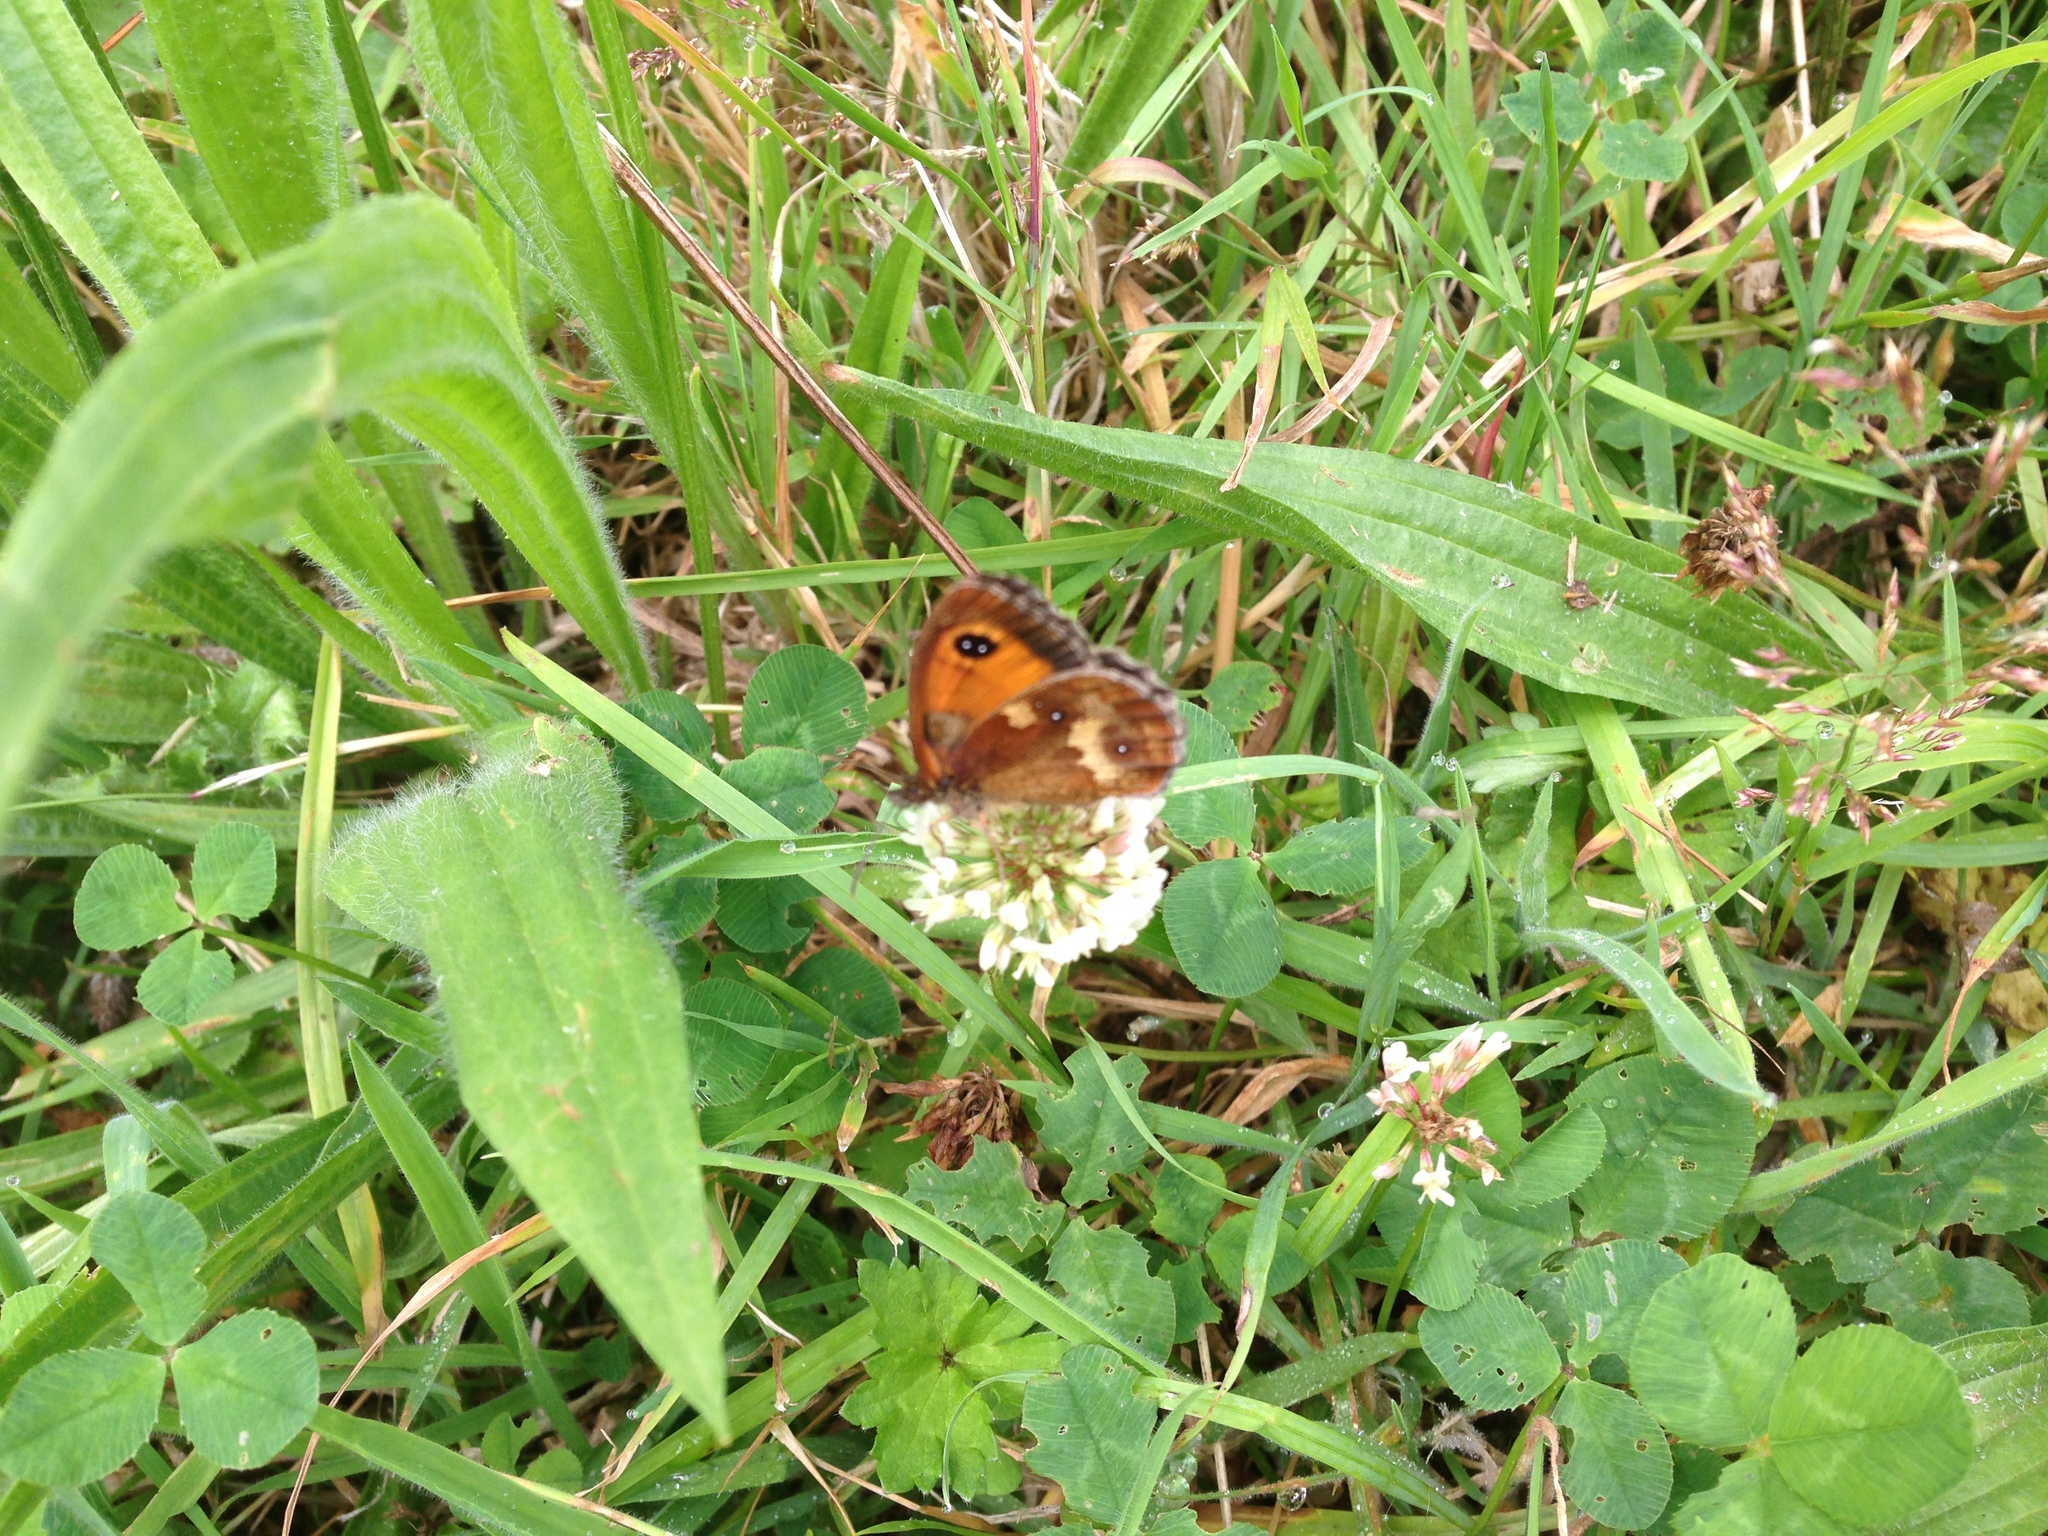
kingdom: Animalia
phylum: Arthropoda
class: Insecta
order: Lepidoptera
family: Nymphalidae
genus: Pyronia
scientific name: Pyronia tithonus
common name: Gatekeeper
